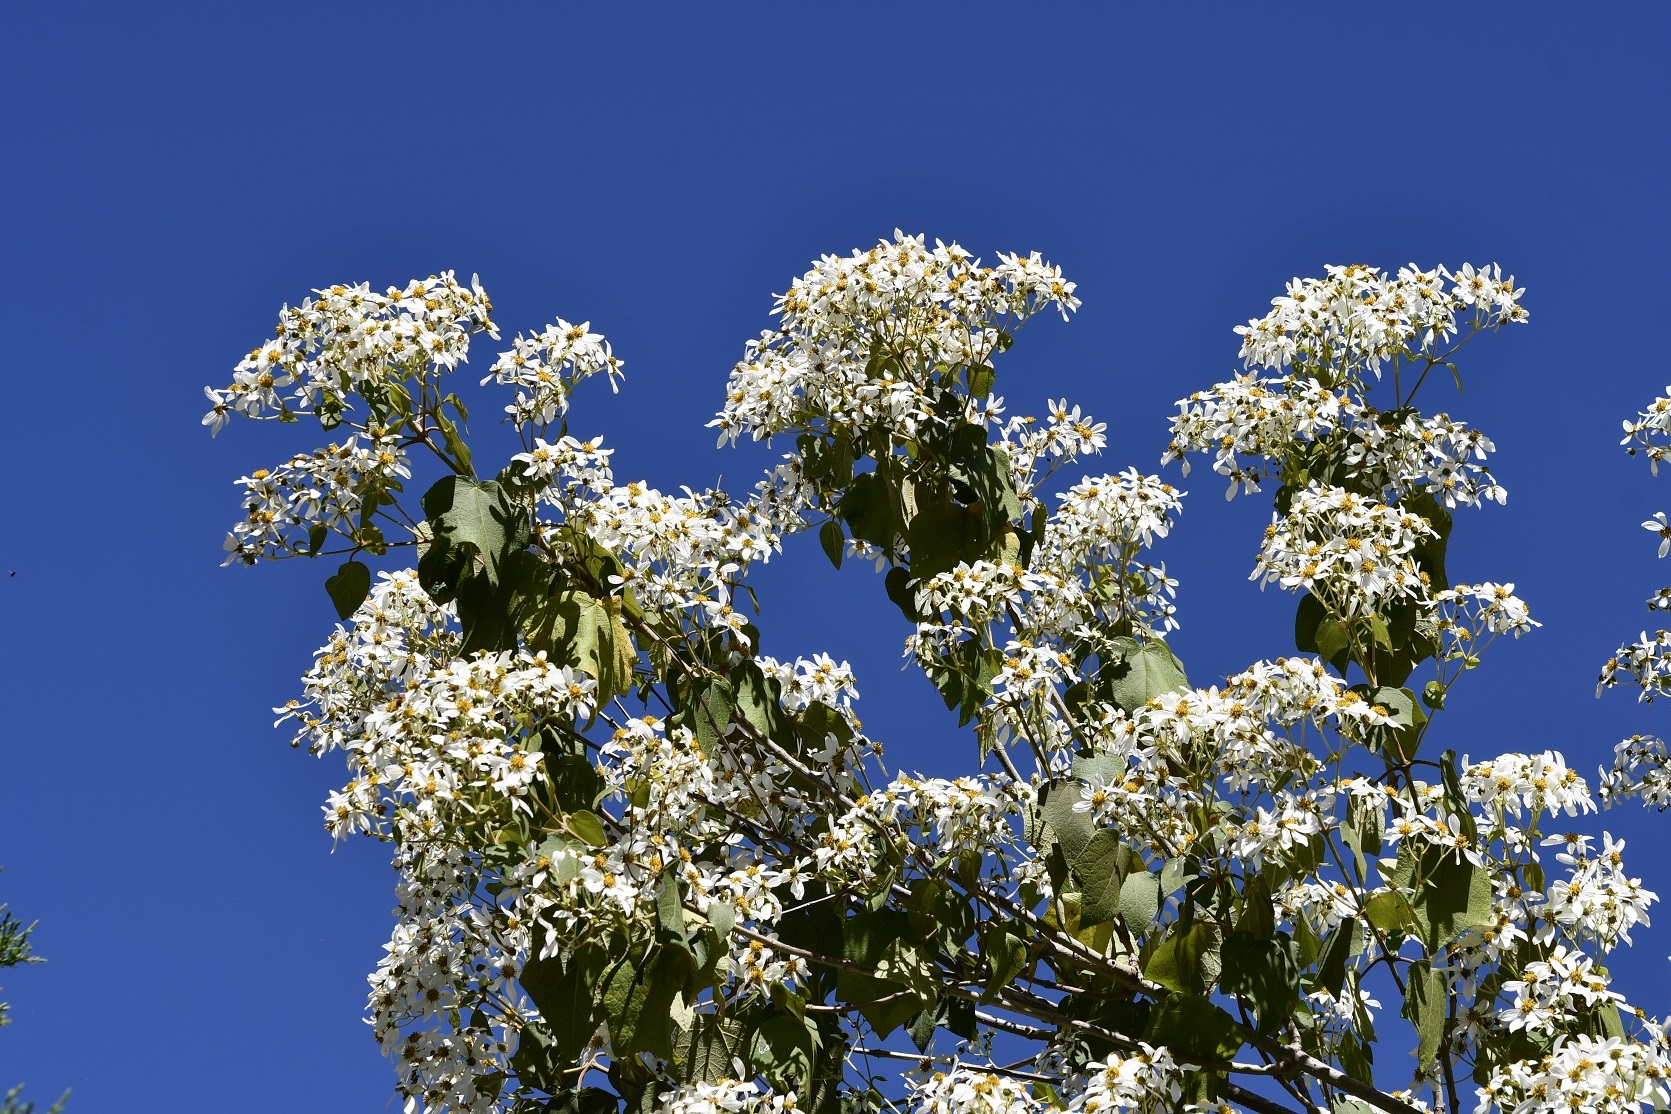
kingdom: Plantae
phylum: Tracheophyta
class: Magnoliopsida
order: Asterales
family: Asteraceae
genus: Montanoa
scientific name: Montanoa leucantha
